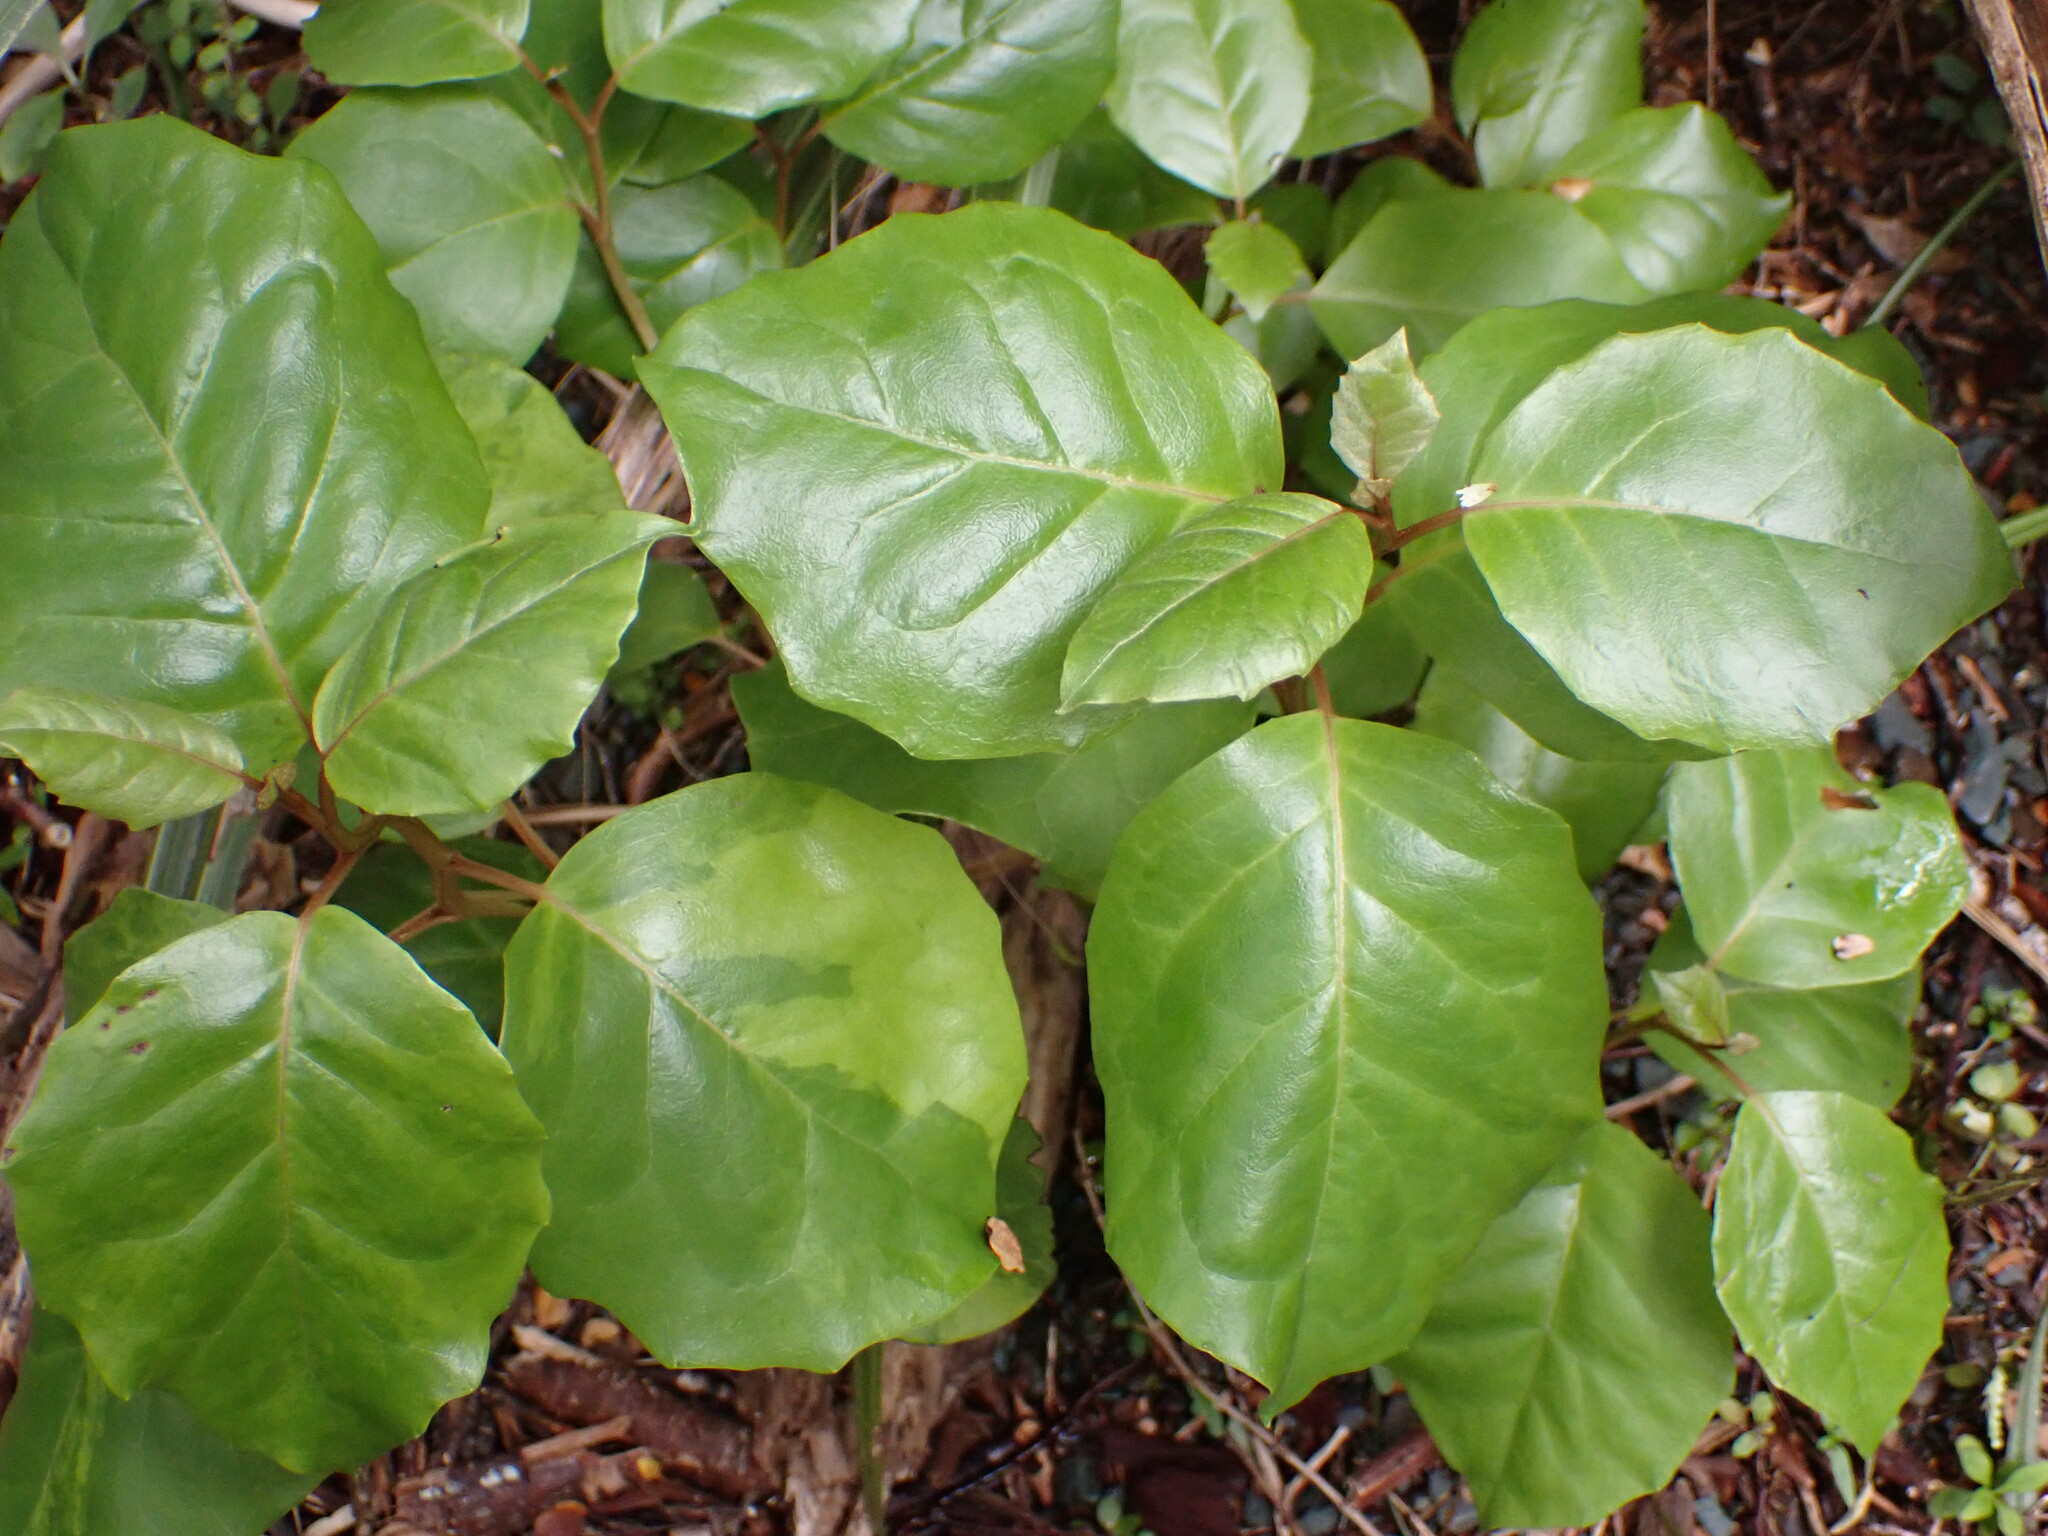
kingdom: Plantae
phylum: Tracheophyta
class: Magnoliopsida
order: Asterales
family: Asteraceae
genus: Olearia
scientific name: Olearia arborescens
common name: Glossy tree daisy
